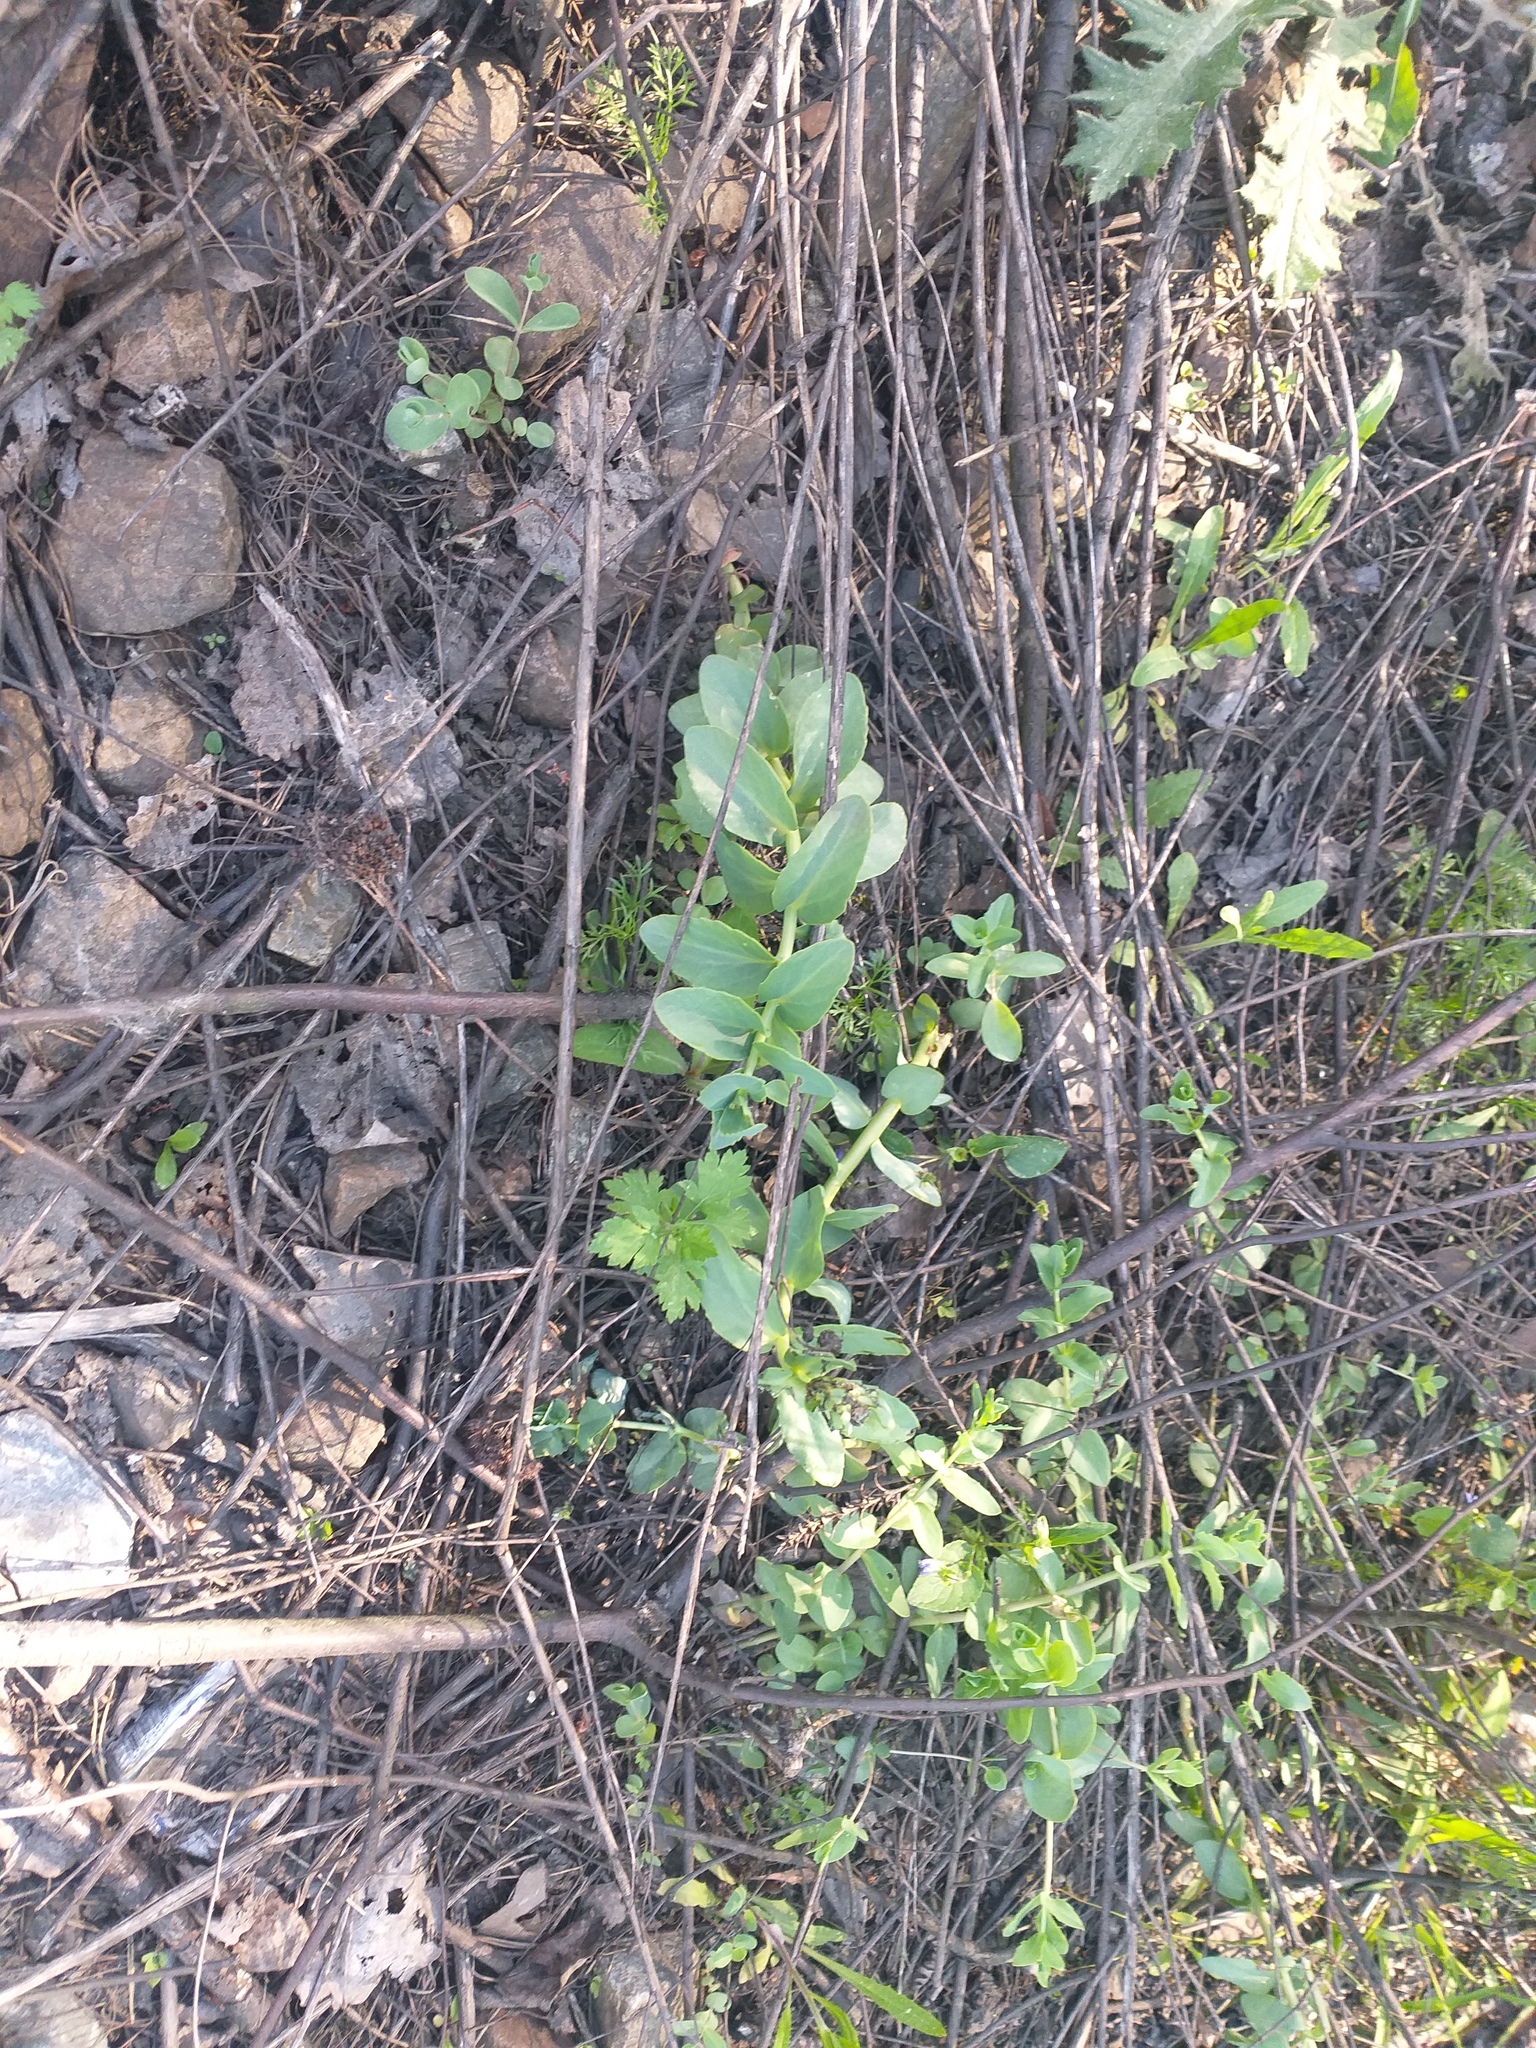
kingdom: Plantae
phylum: Tracheophyta
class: Magnoliopsida
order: Saxifragales
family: Crassulaceae
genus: Hylotelephium
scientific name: Hylotelephium maximum
